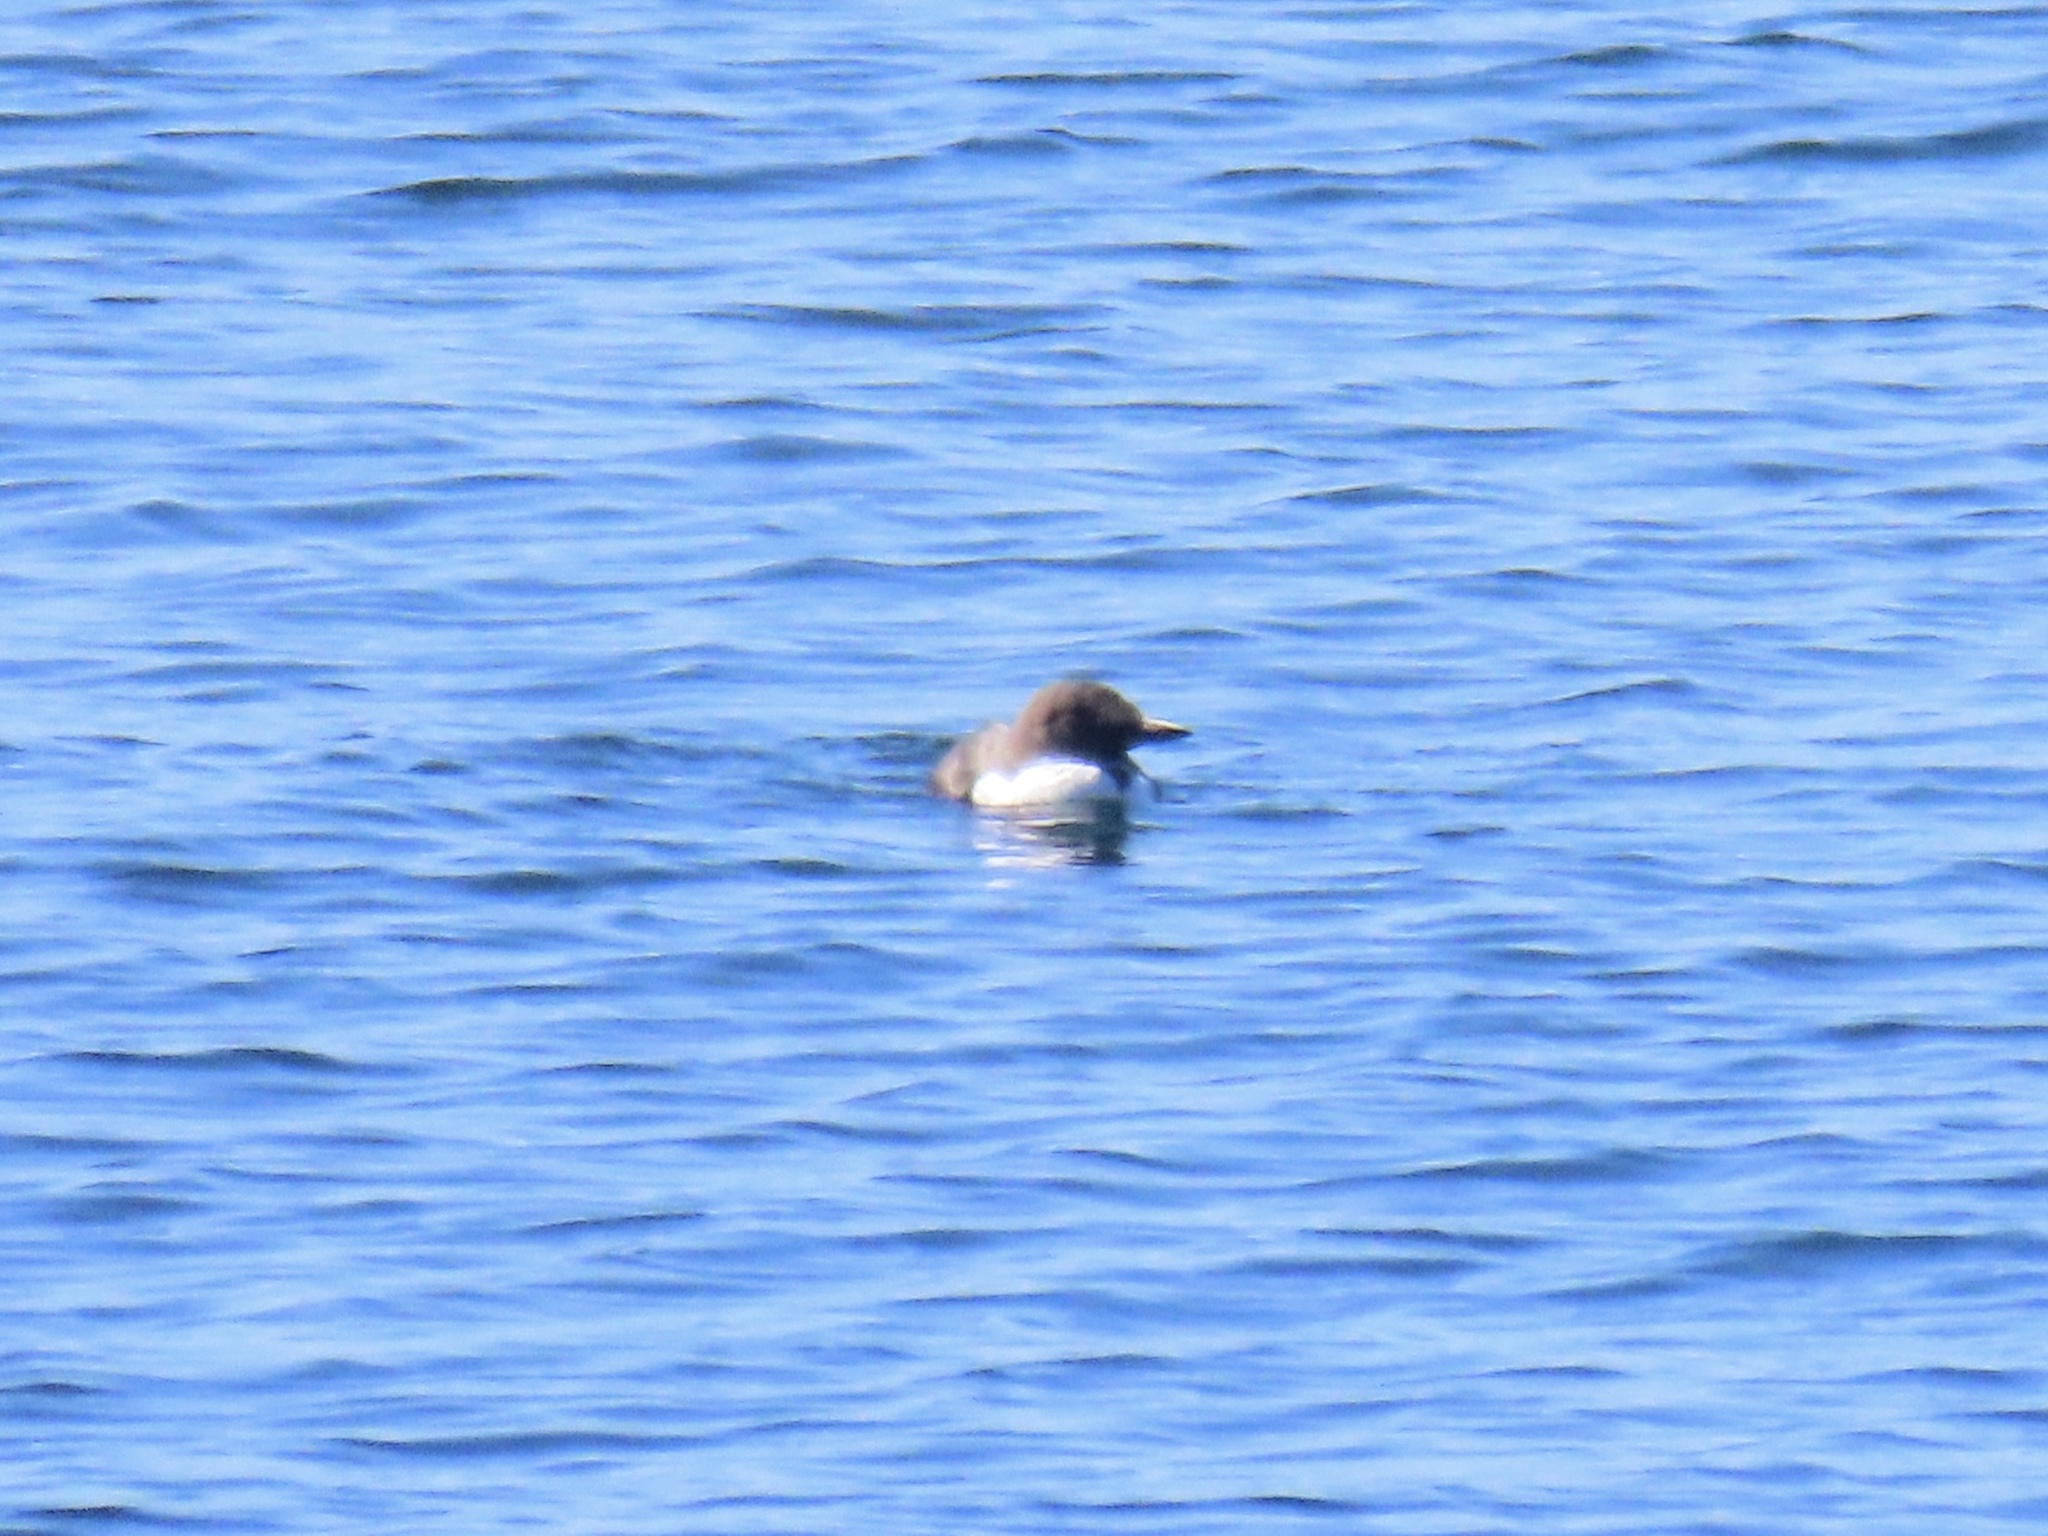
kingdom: Animalia
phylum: Chordata
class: Aves
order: Charadriiformes
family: Alcidae
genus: Uria
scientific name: Uria aalge
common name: Common murre
